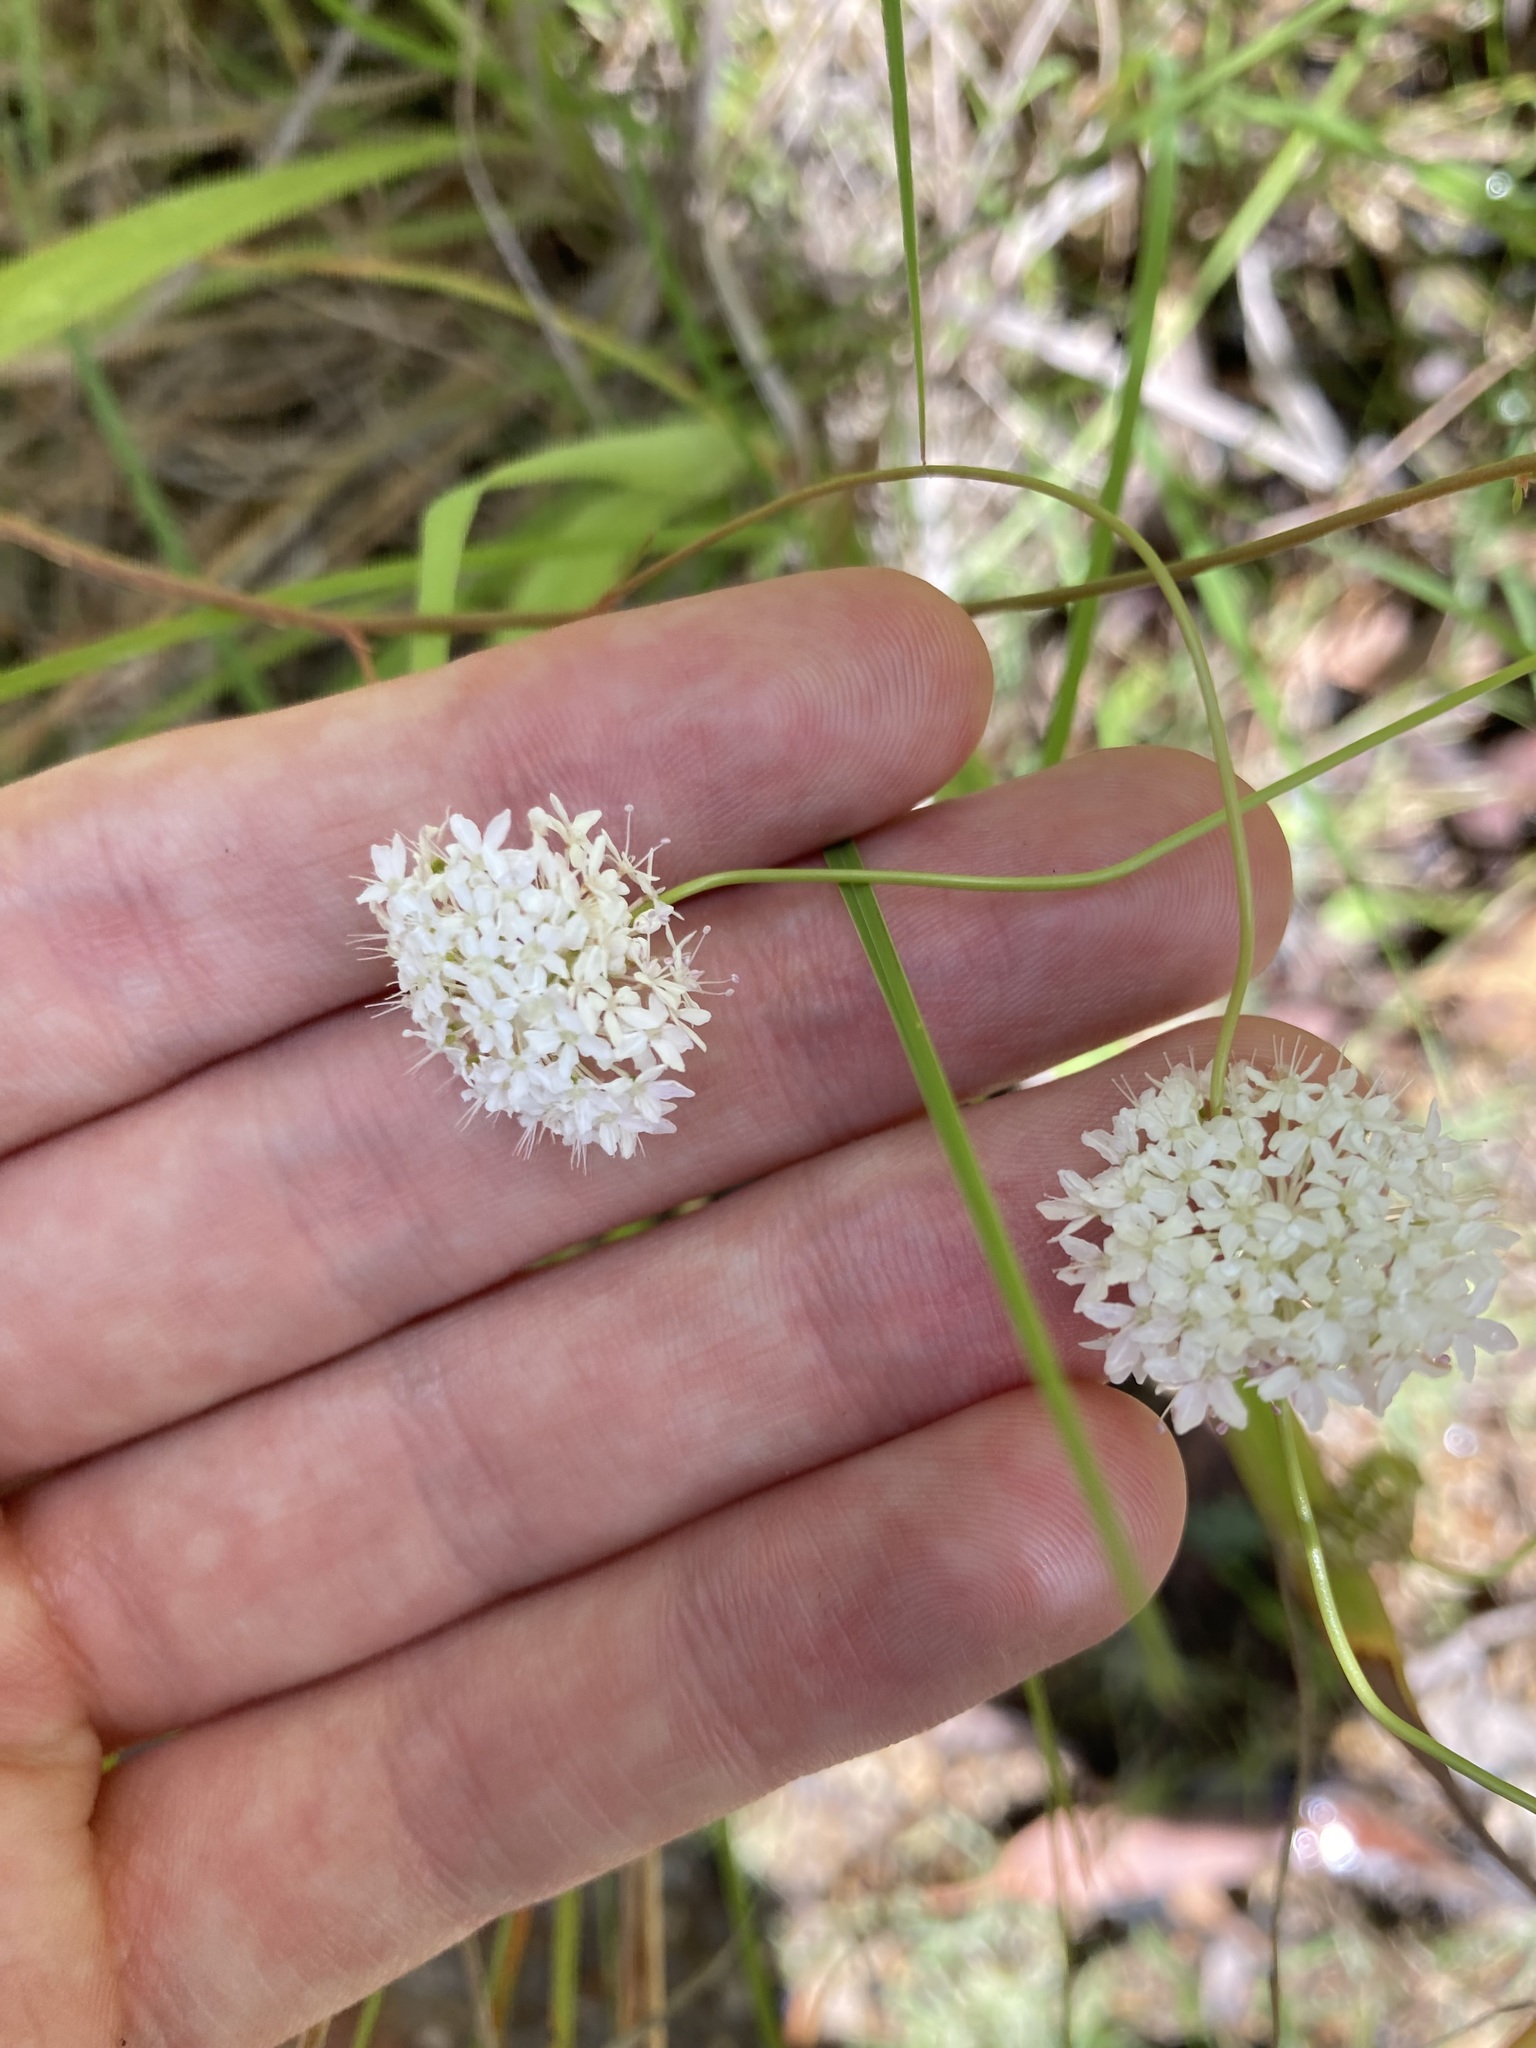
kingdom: Plantae
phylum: Tracheophyta
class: Magnoliopsida
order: Apiales
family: Araliaceae
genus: Trachymene
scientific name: Trachymene incisa
